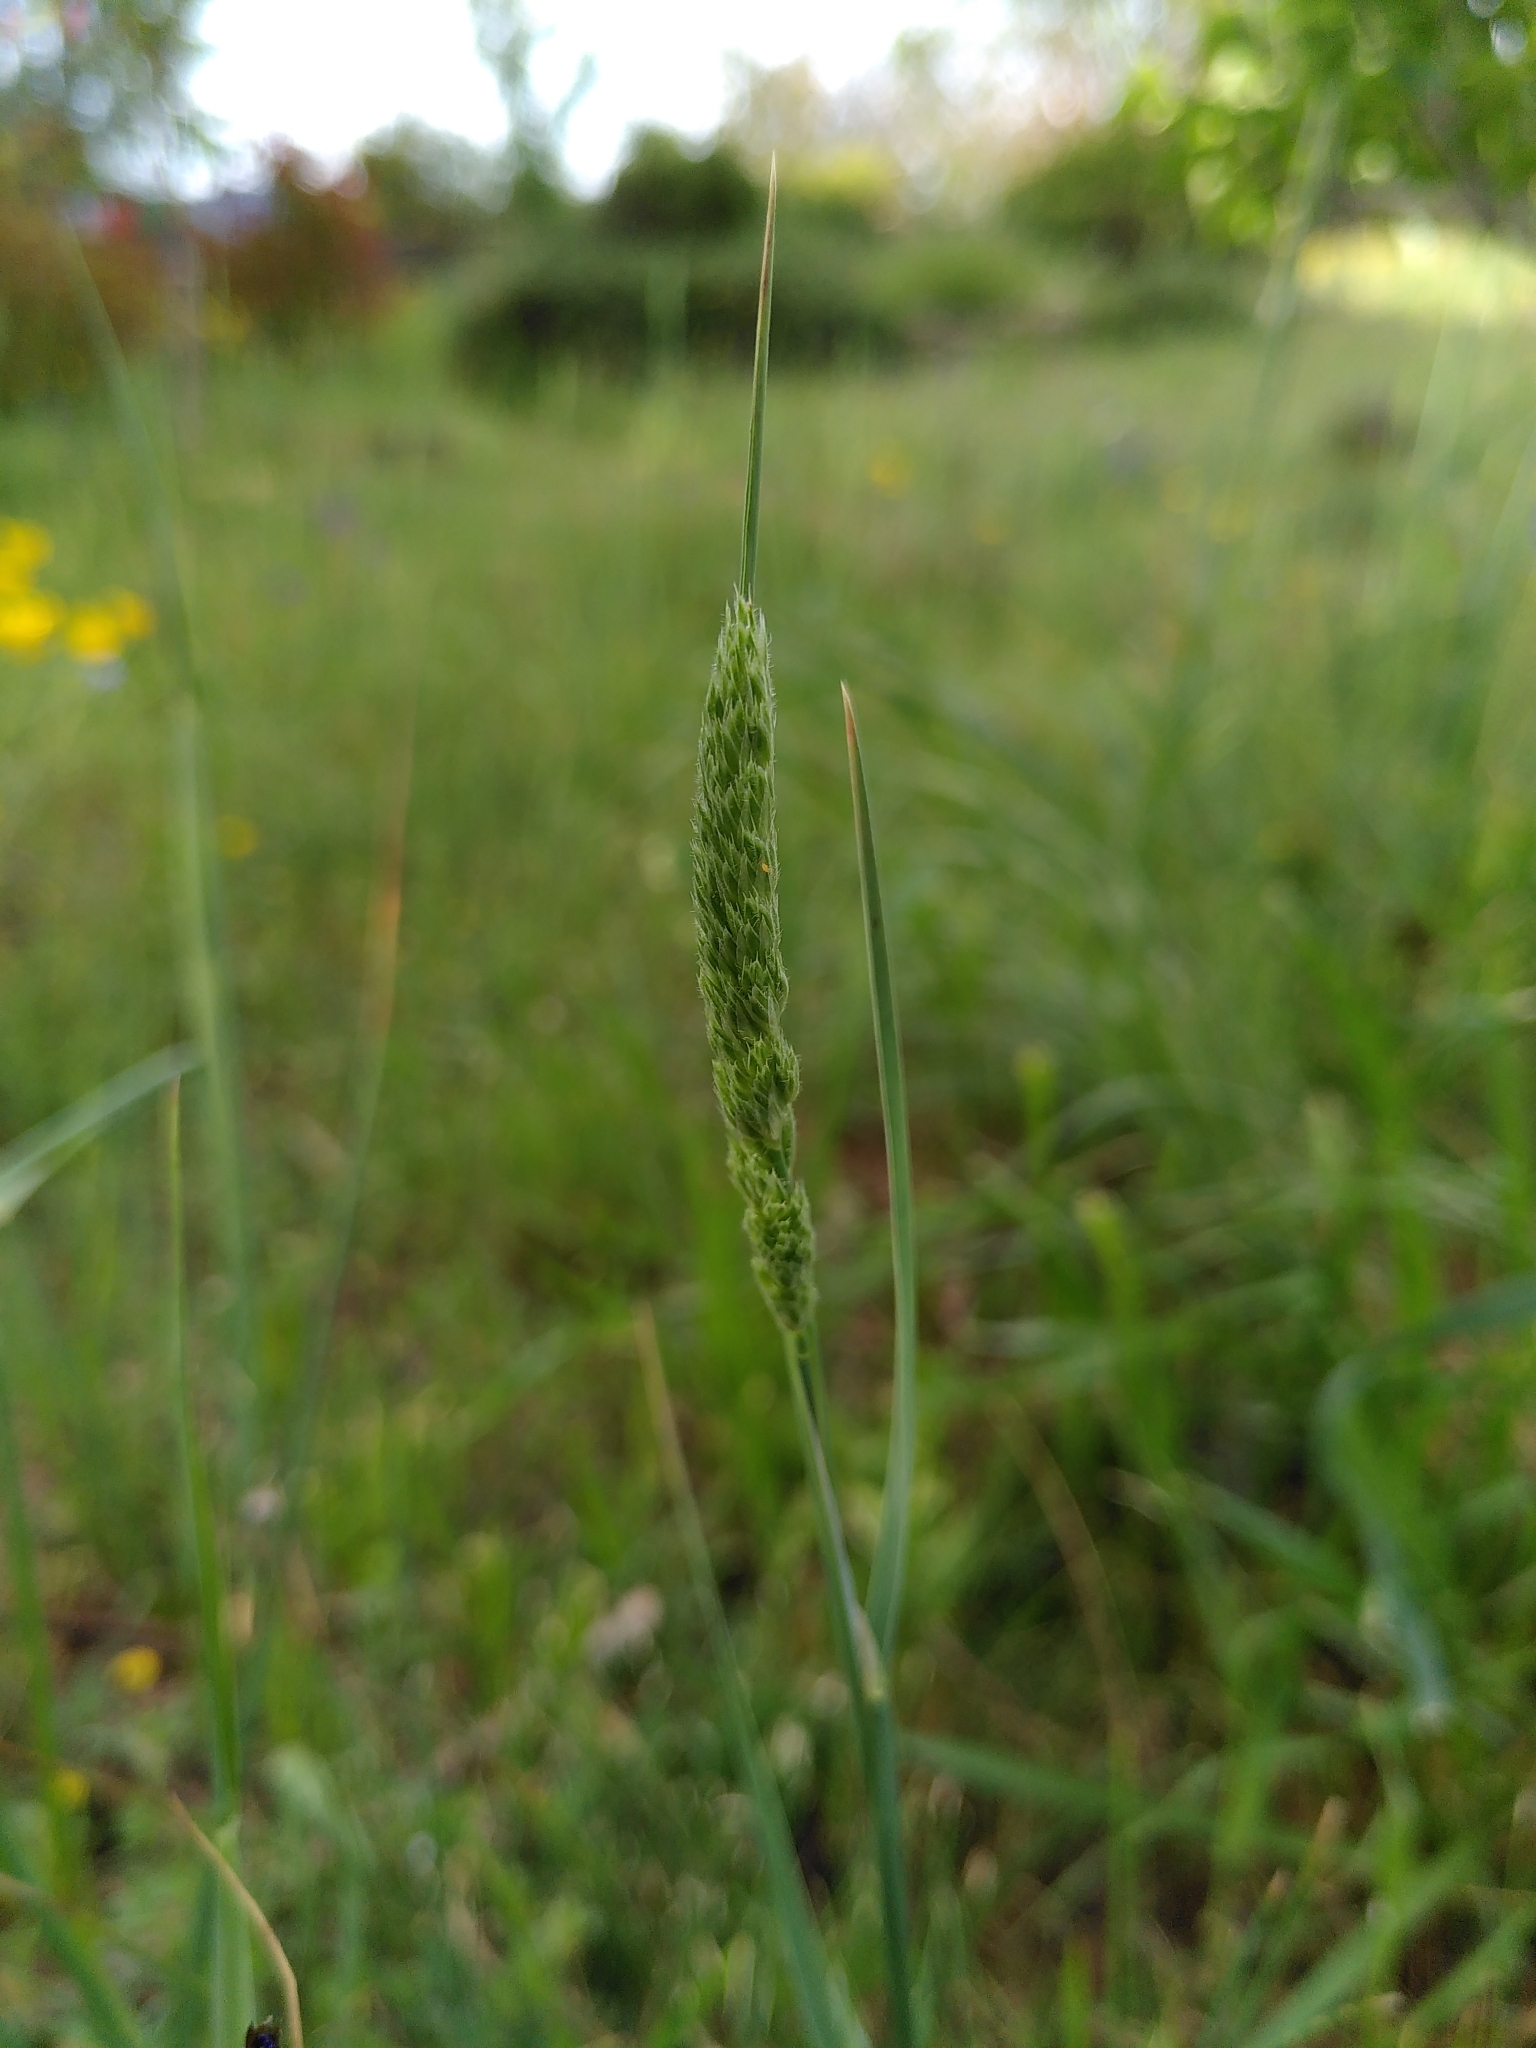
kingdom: Plantae
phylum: Tracheophyta
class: Liliopsida
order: Poales
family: Poaceae
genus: Dactylis
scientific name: Dactylis glomerata
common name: Orchardgrass
